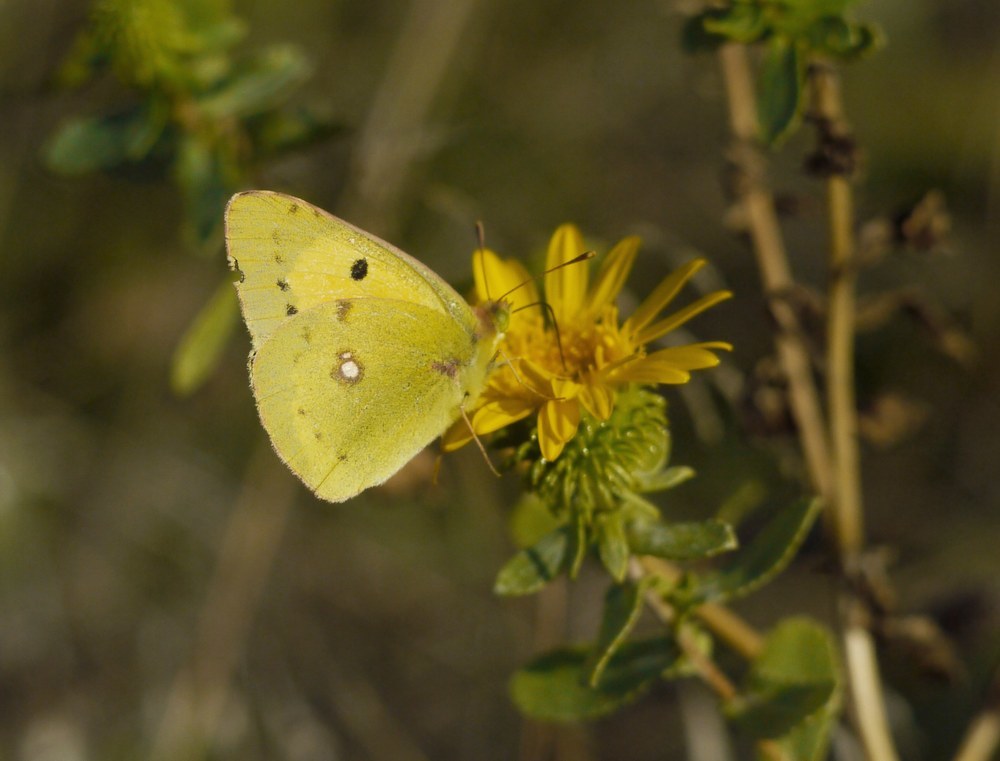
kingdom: Animalia
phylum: Arthropoda
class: Insecta
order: Lepidoptera
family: Pieridae
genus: Colias
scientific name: Colias erate
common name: Eastern pale clouded yellow
